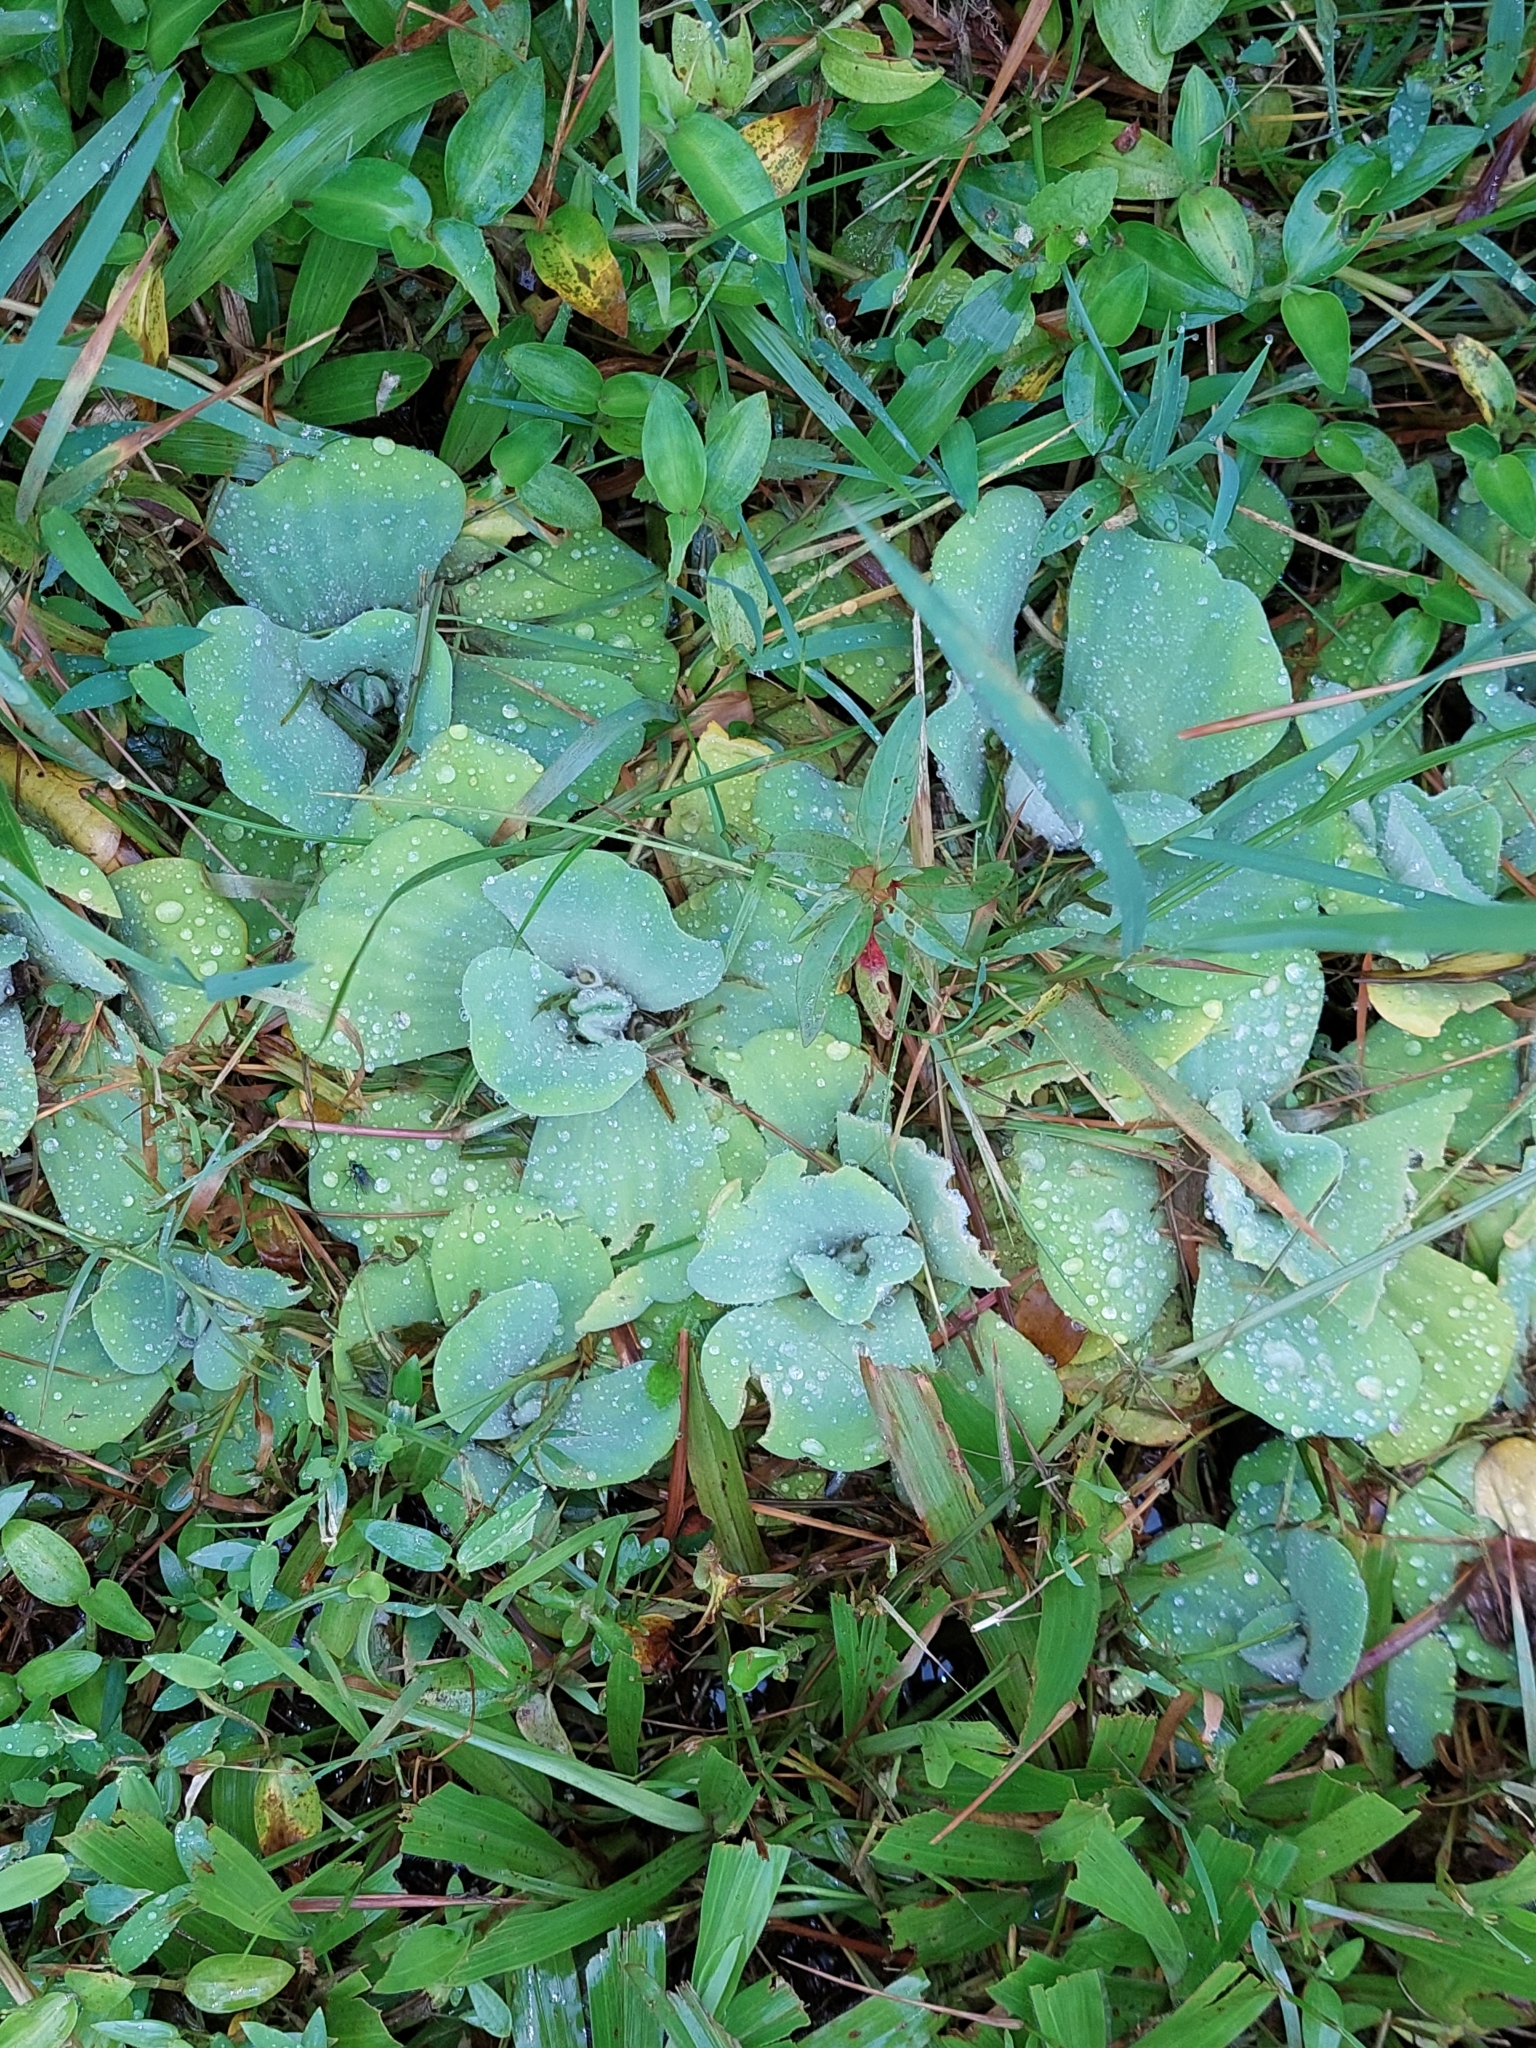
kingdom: Plantae
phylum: Tracheophyta
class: Liliopsida
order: Alismatales
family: Araceae
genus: Pistia
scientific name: Pistia stratiotes
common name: Water lettuce
